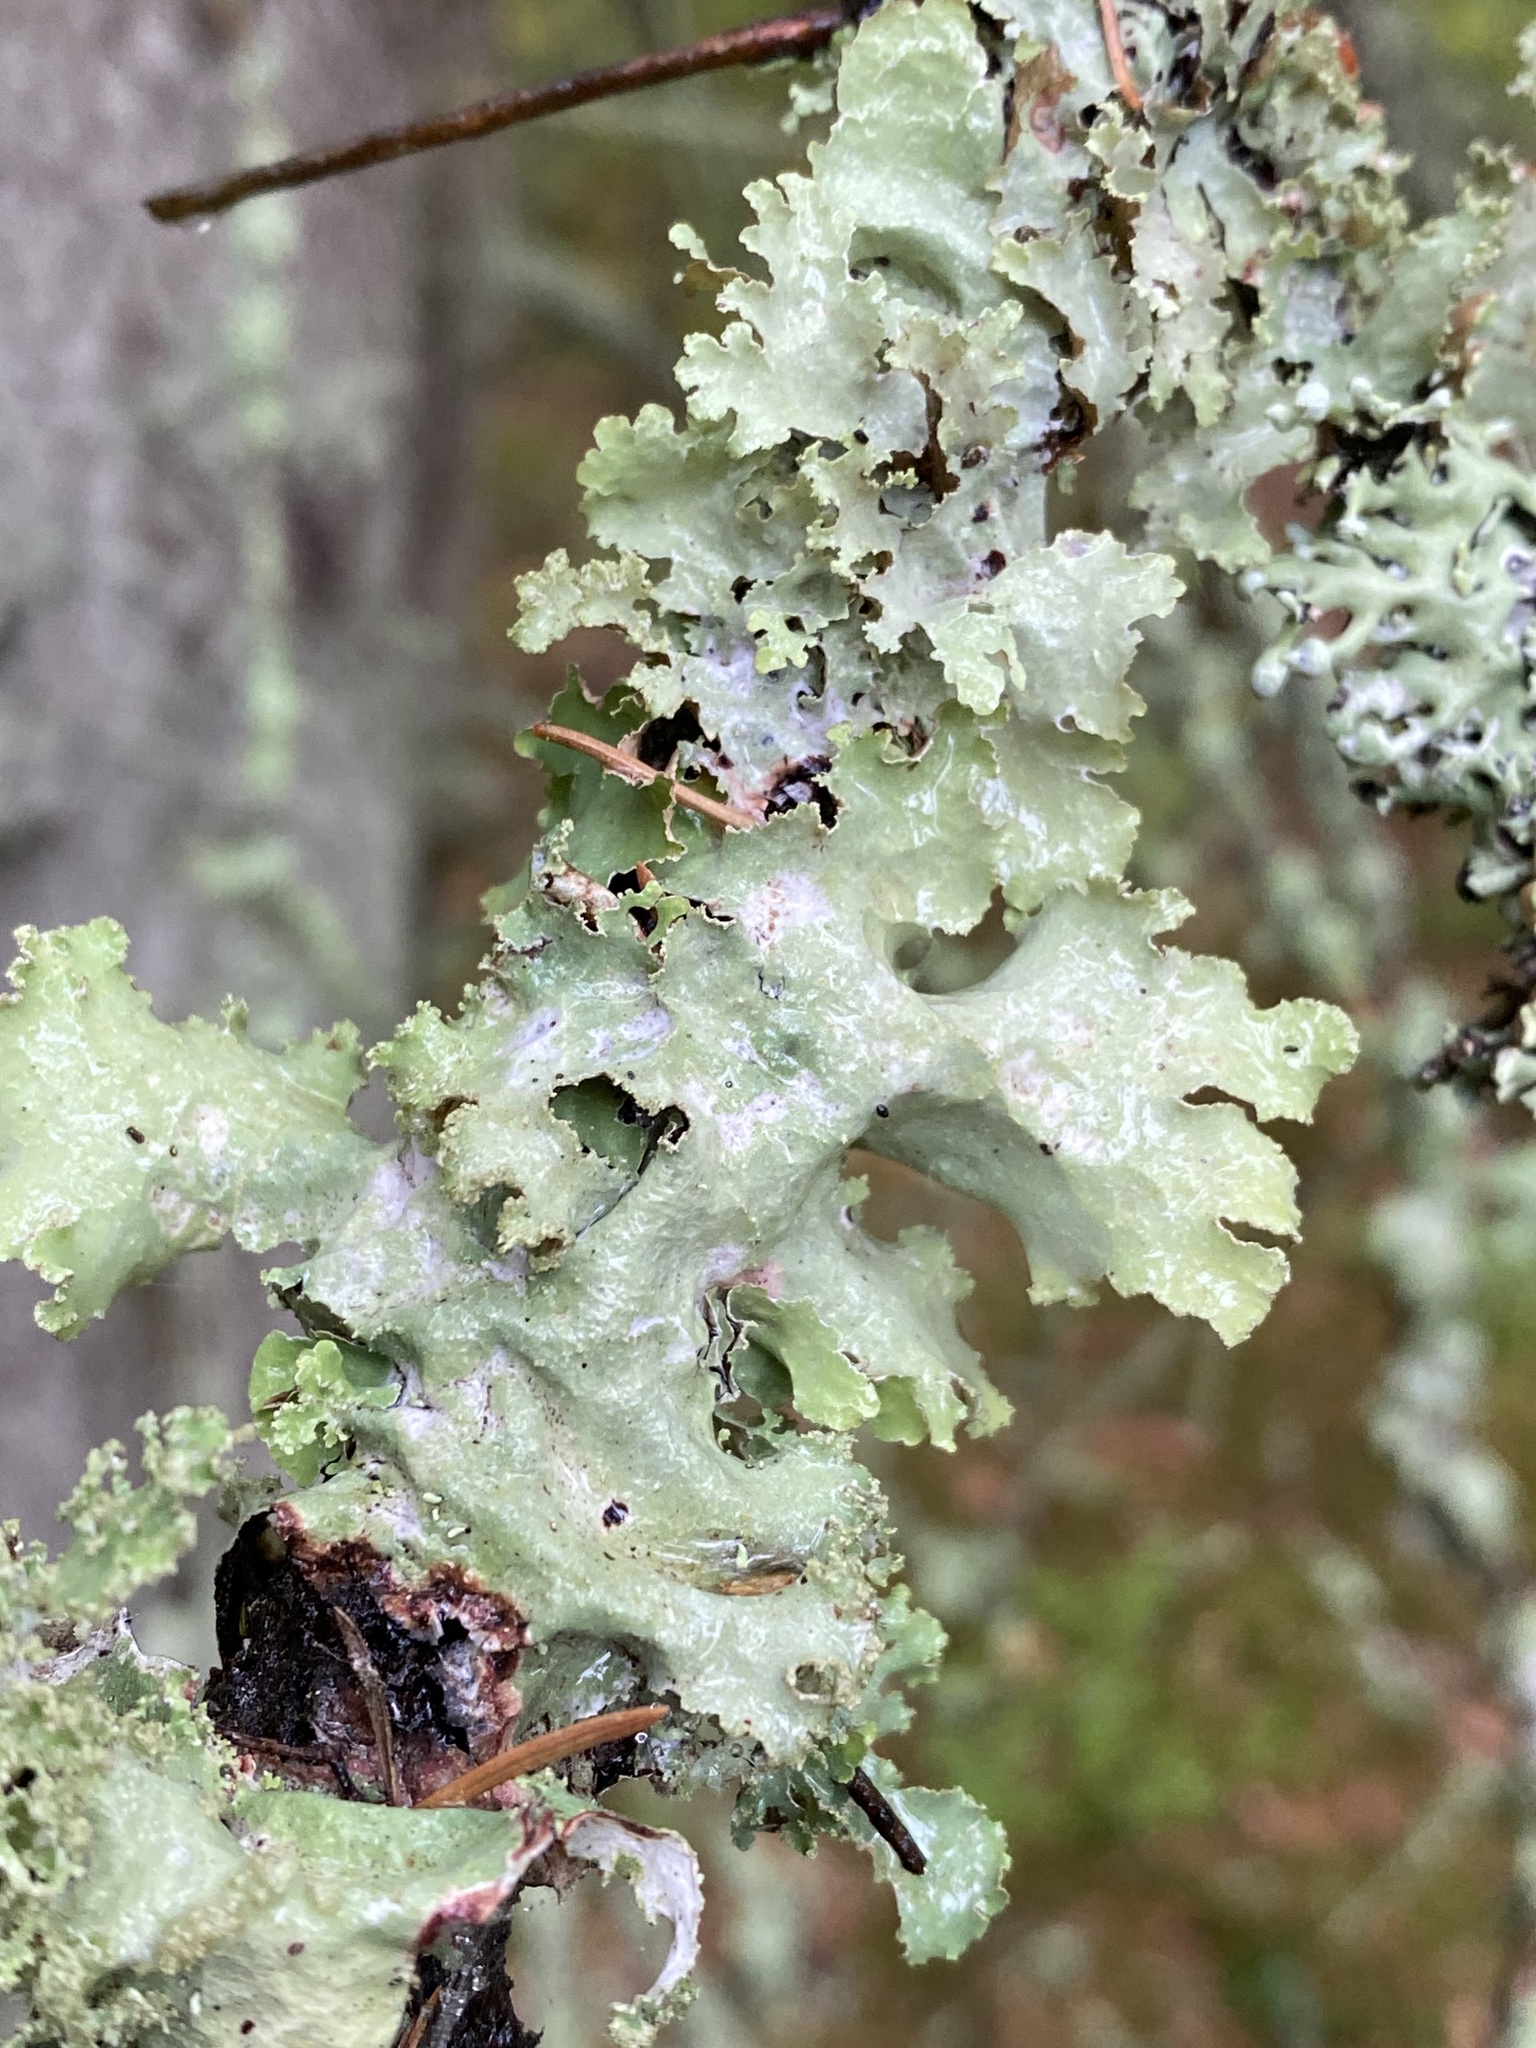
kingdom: Fungi
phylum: Ascomycota
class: Lecanoromycetes
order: Lecanorales
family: Parmeliaceae
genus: Platismatia
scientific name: Platismatia glauca
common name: Varied rag lichen
